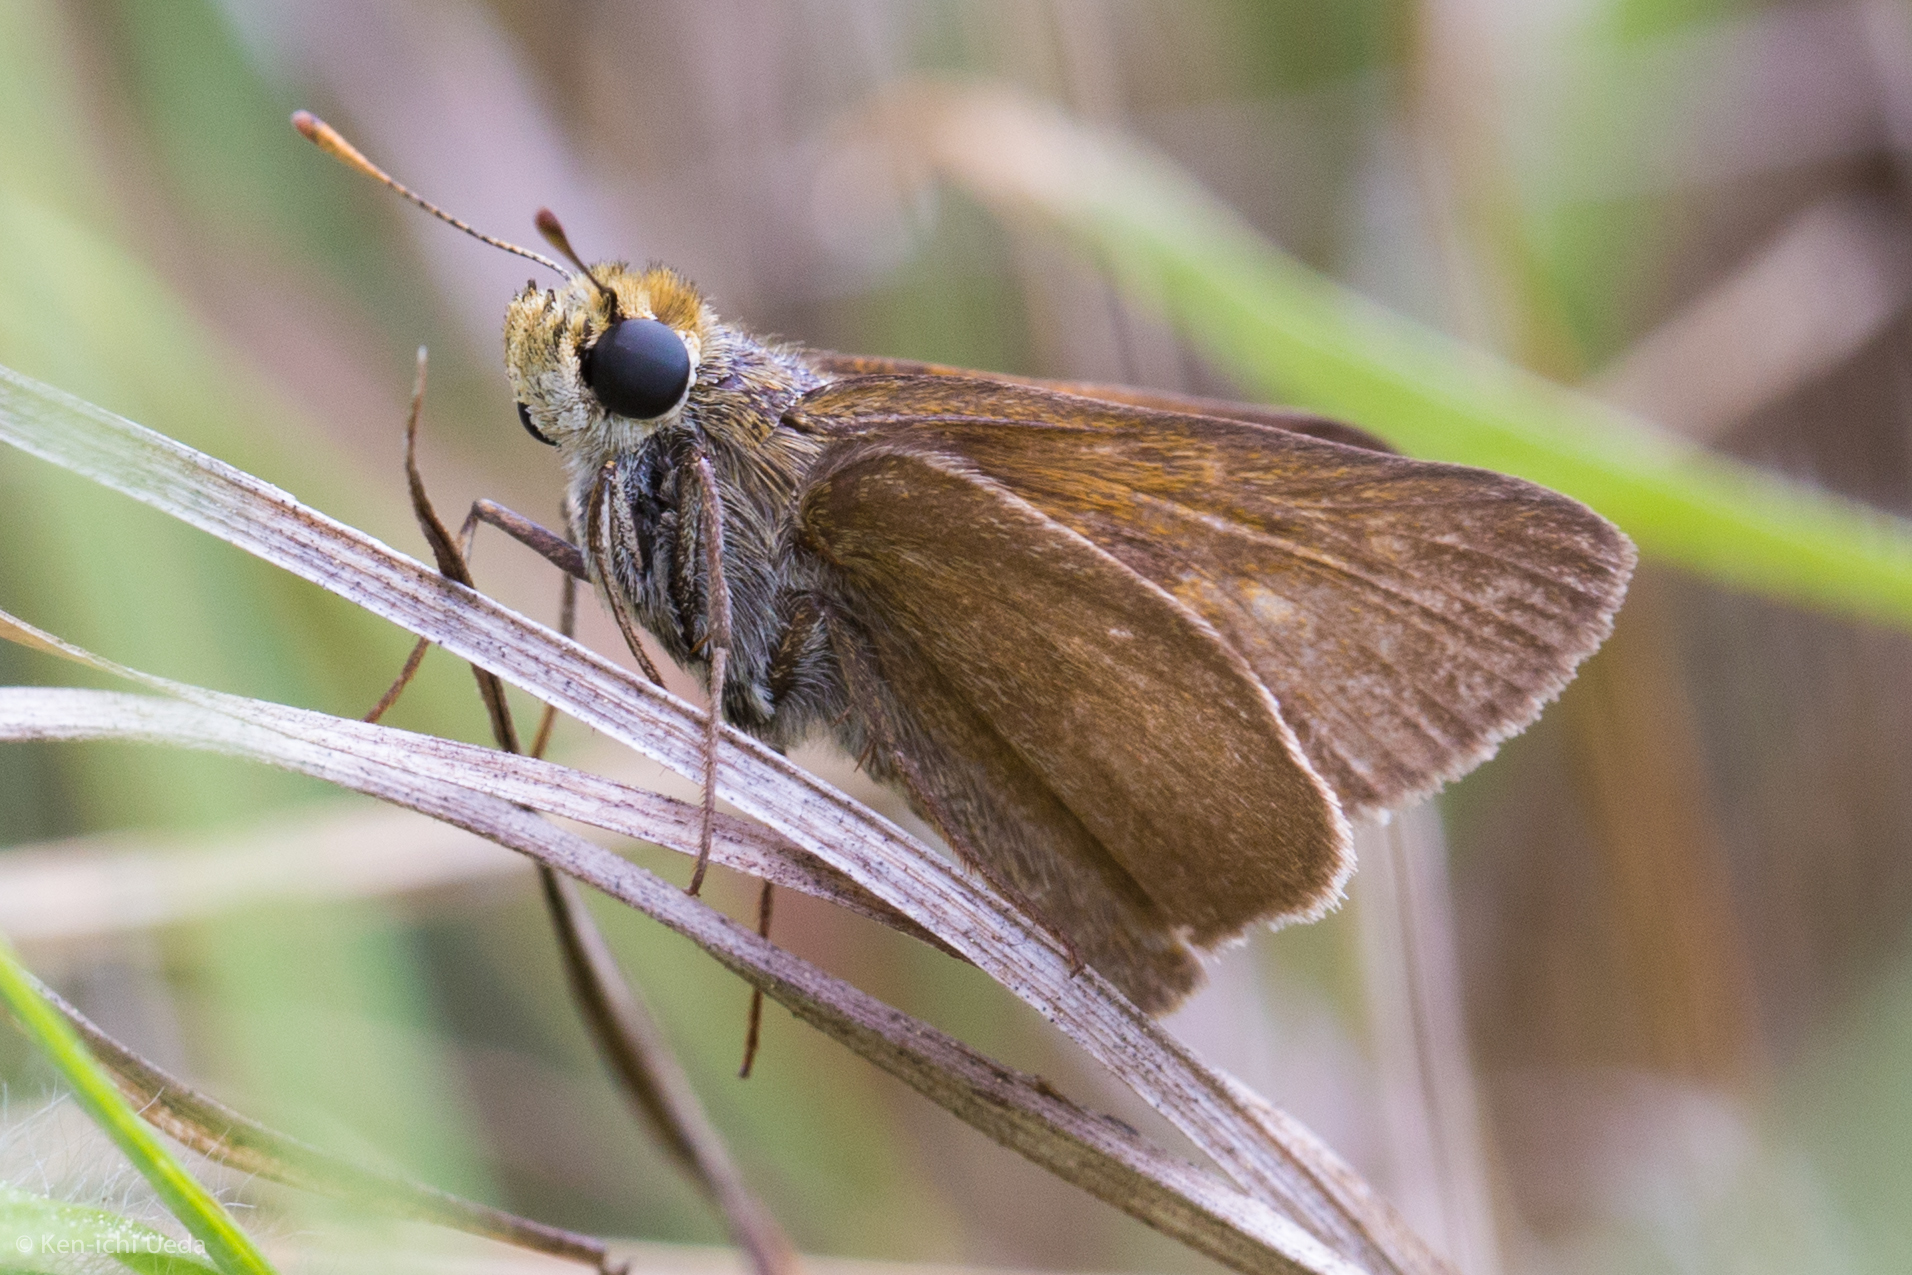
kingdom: Animalia
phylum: Arthropoda
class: Insecta
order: Lepidoptera
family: Hesperiidae
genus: Euphyes
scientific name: Euphyes vestris
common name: Dun skipper
